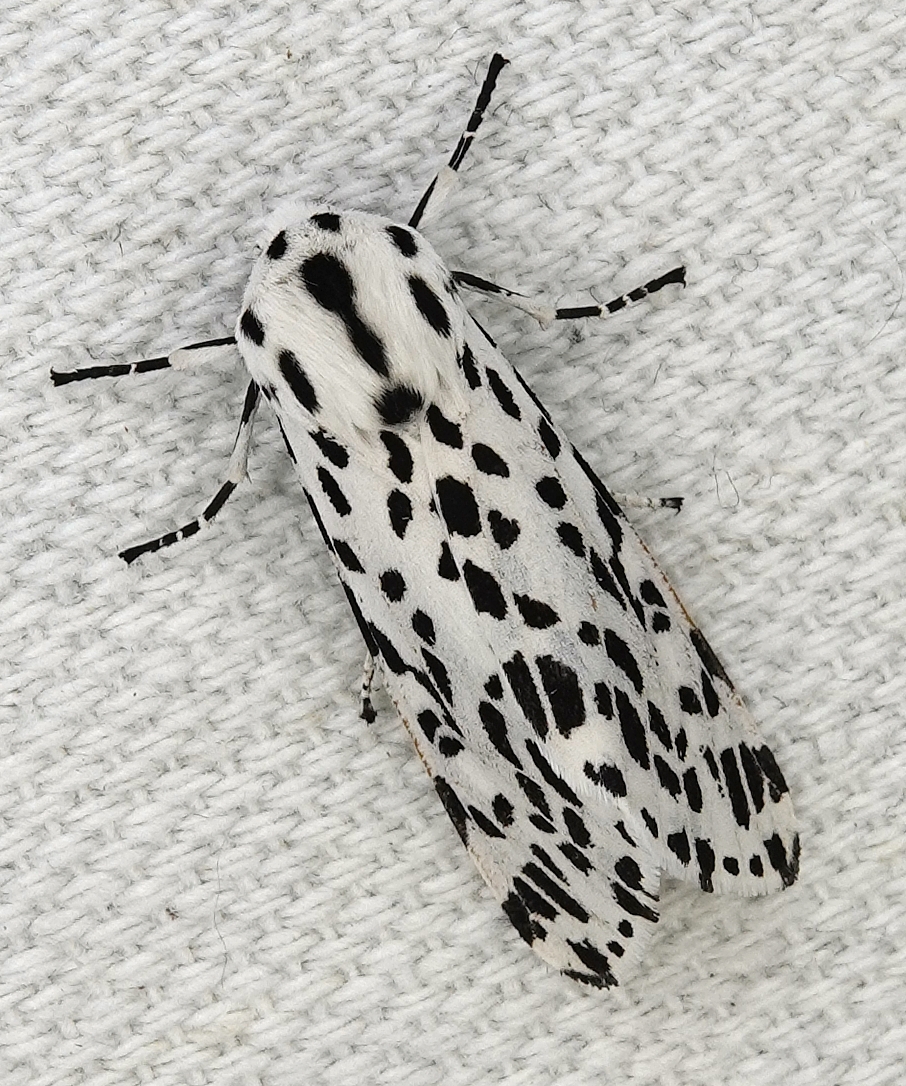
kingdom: Animalia
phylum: Arthropoda
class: Insecta
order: Lepidoptera
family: Erebidae
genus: Hypercompe
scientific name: Hypercompe permaculata
